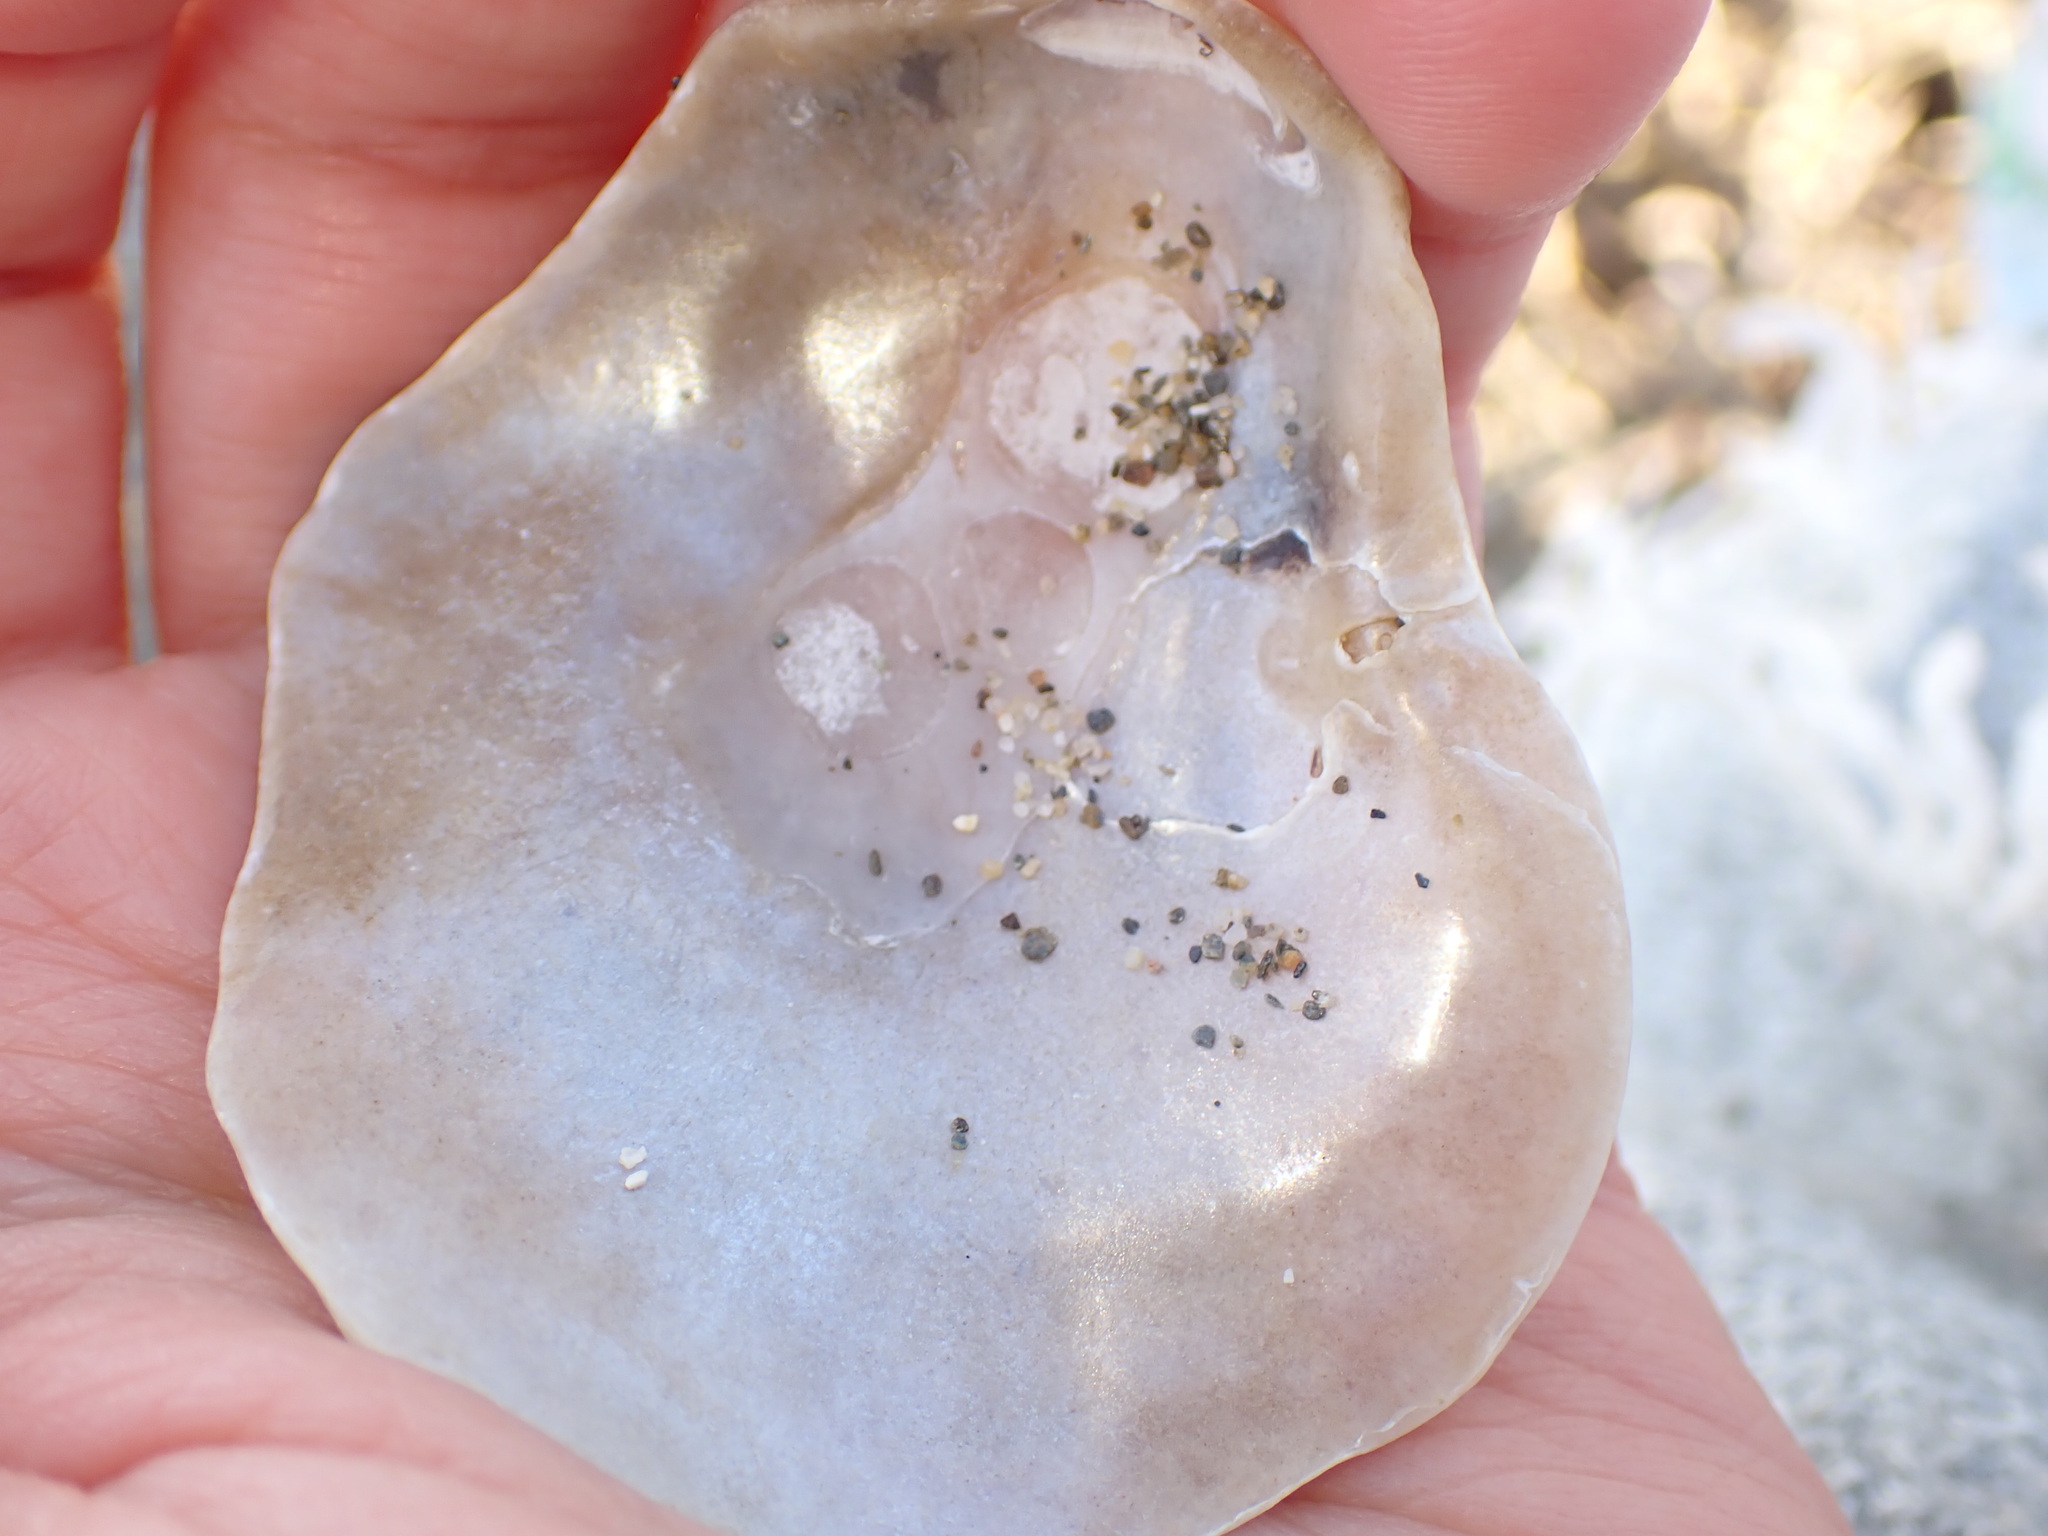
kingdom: Animalia
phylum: Mollusca
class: Bivalvia
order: Pectinida
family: Anomiidae
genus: Anomia
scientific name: Anomia ephippium
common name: Saddle oyster
